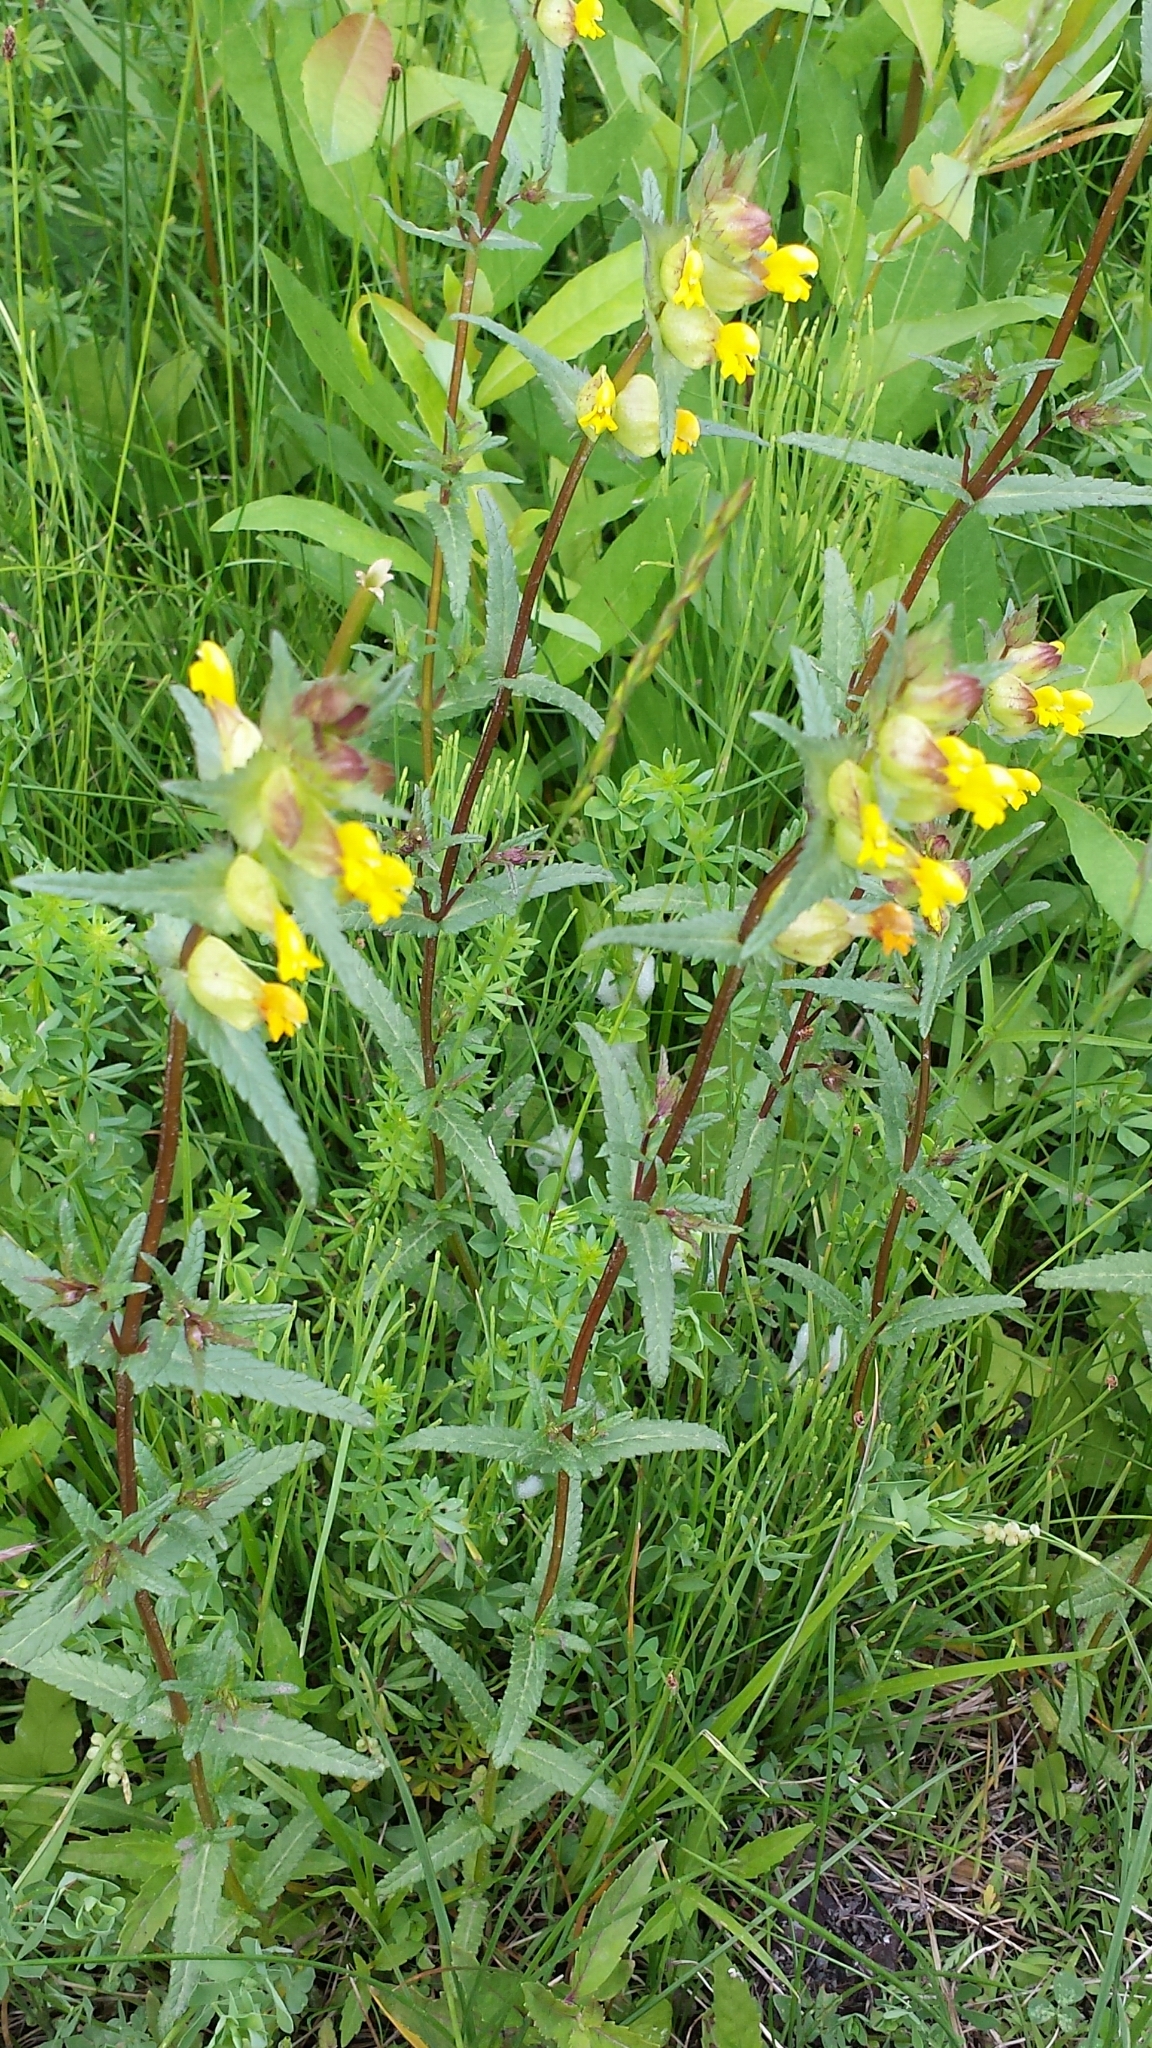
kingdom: Plantae
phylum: Tracheophyta
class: Magnoliopsida
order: Lamiales
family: Orobanchaceae
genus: Rhinanthus
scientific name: Rhinanthus minor
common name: Yellow-rattle
